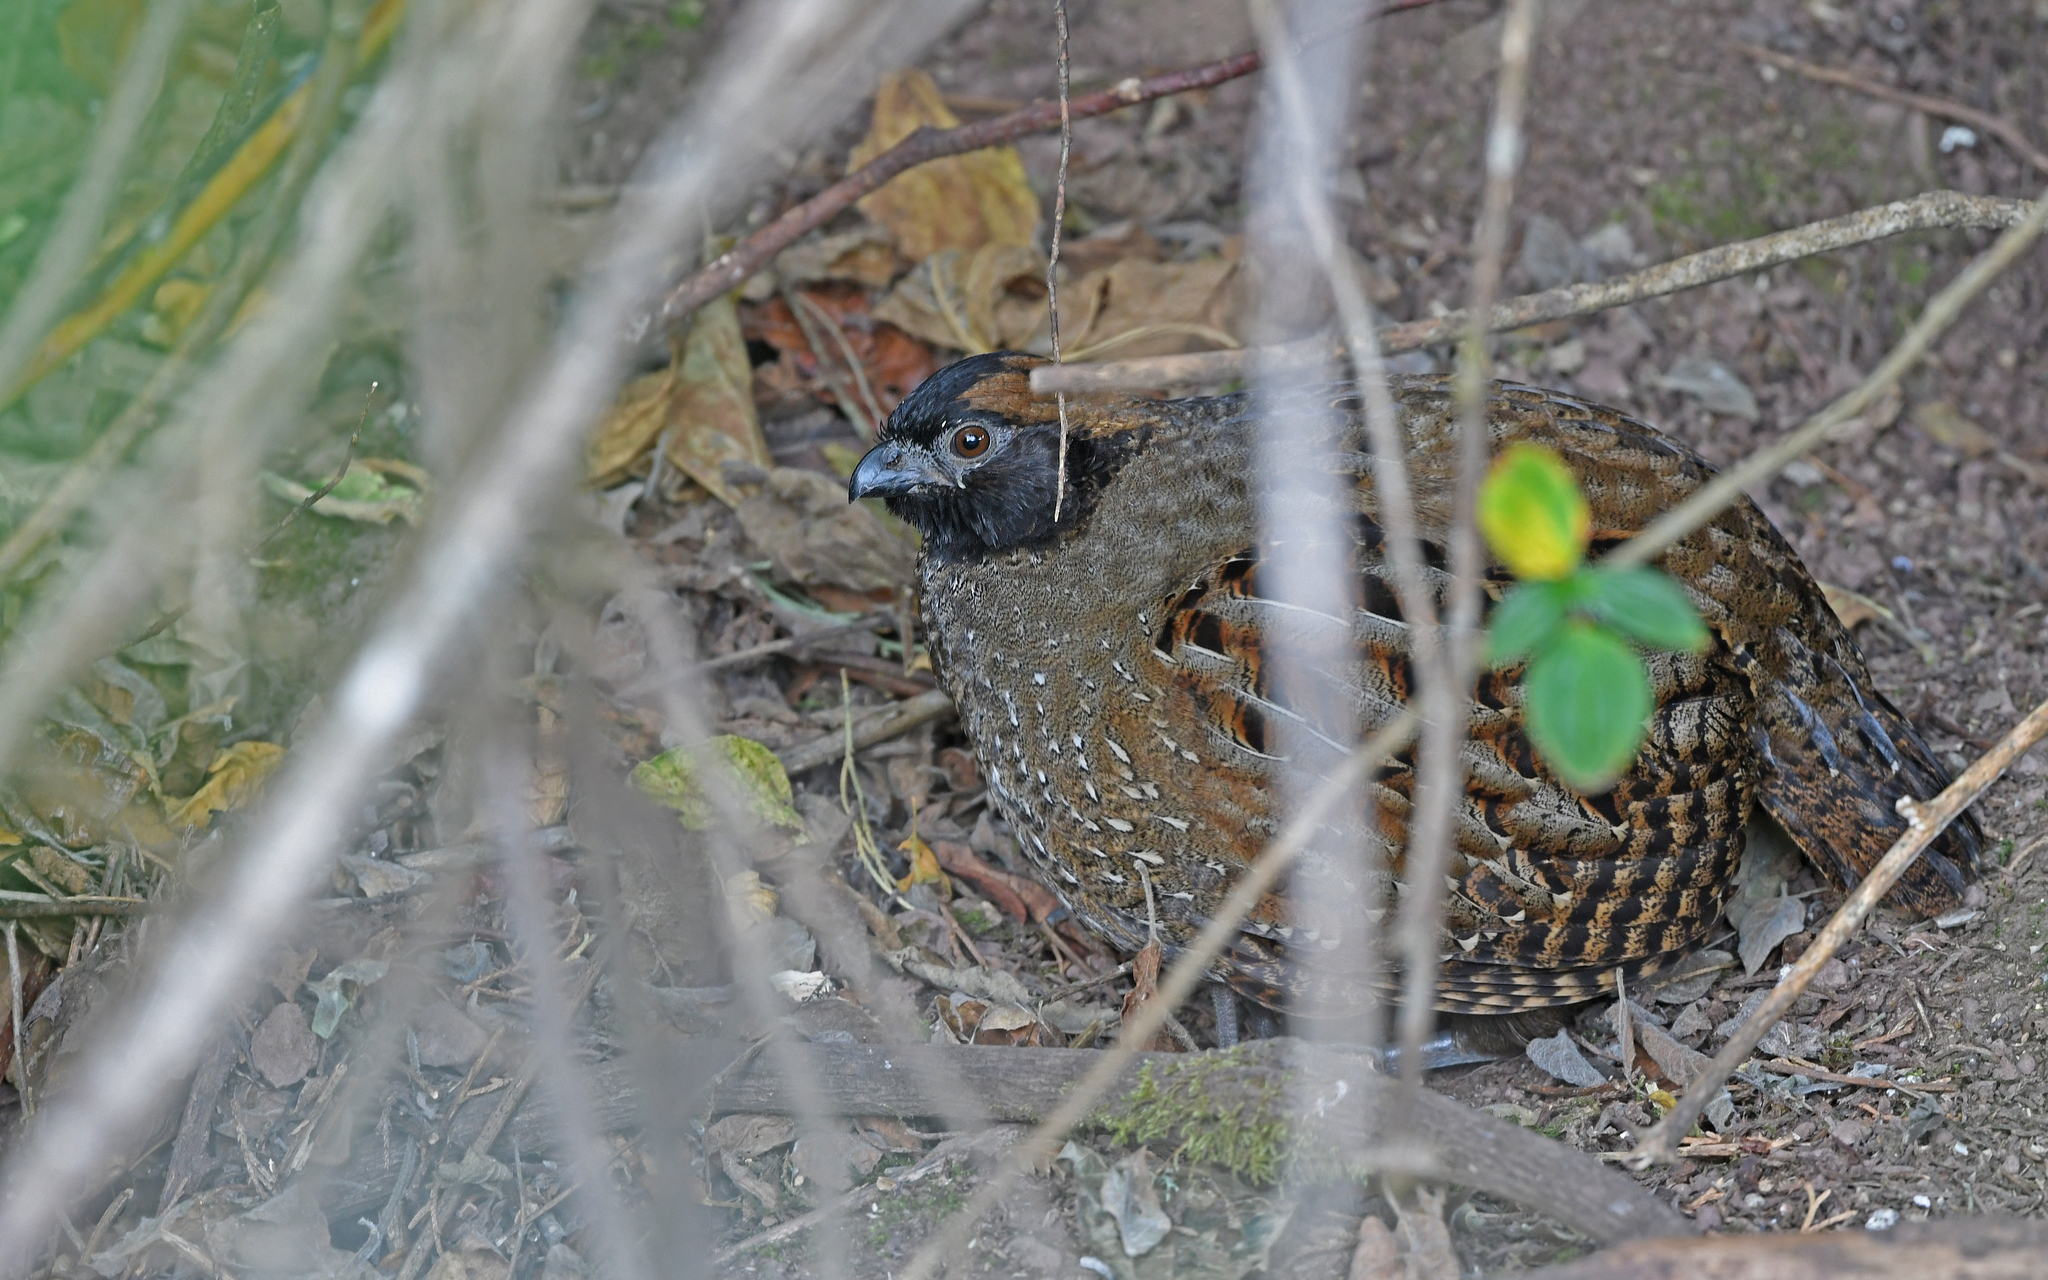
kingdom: Animalia
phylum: Chordata
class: Aves
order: Galliformes
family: Odontophoridae
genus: Odontophorus
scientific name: Odontophorus atrifrons
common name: Black-fronted wood-quail
